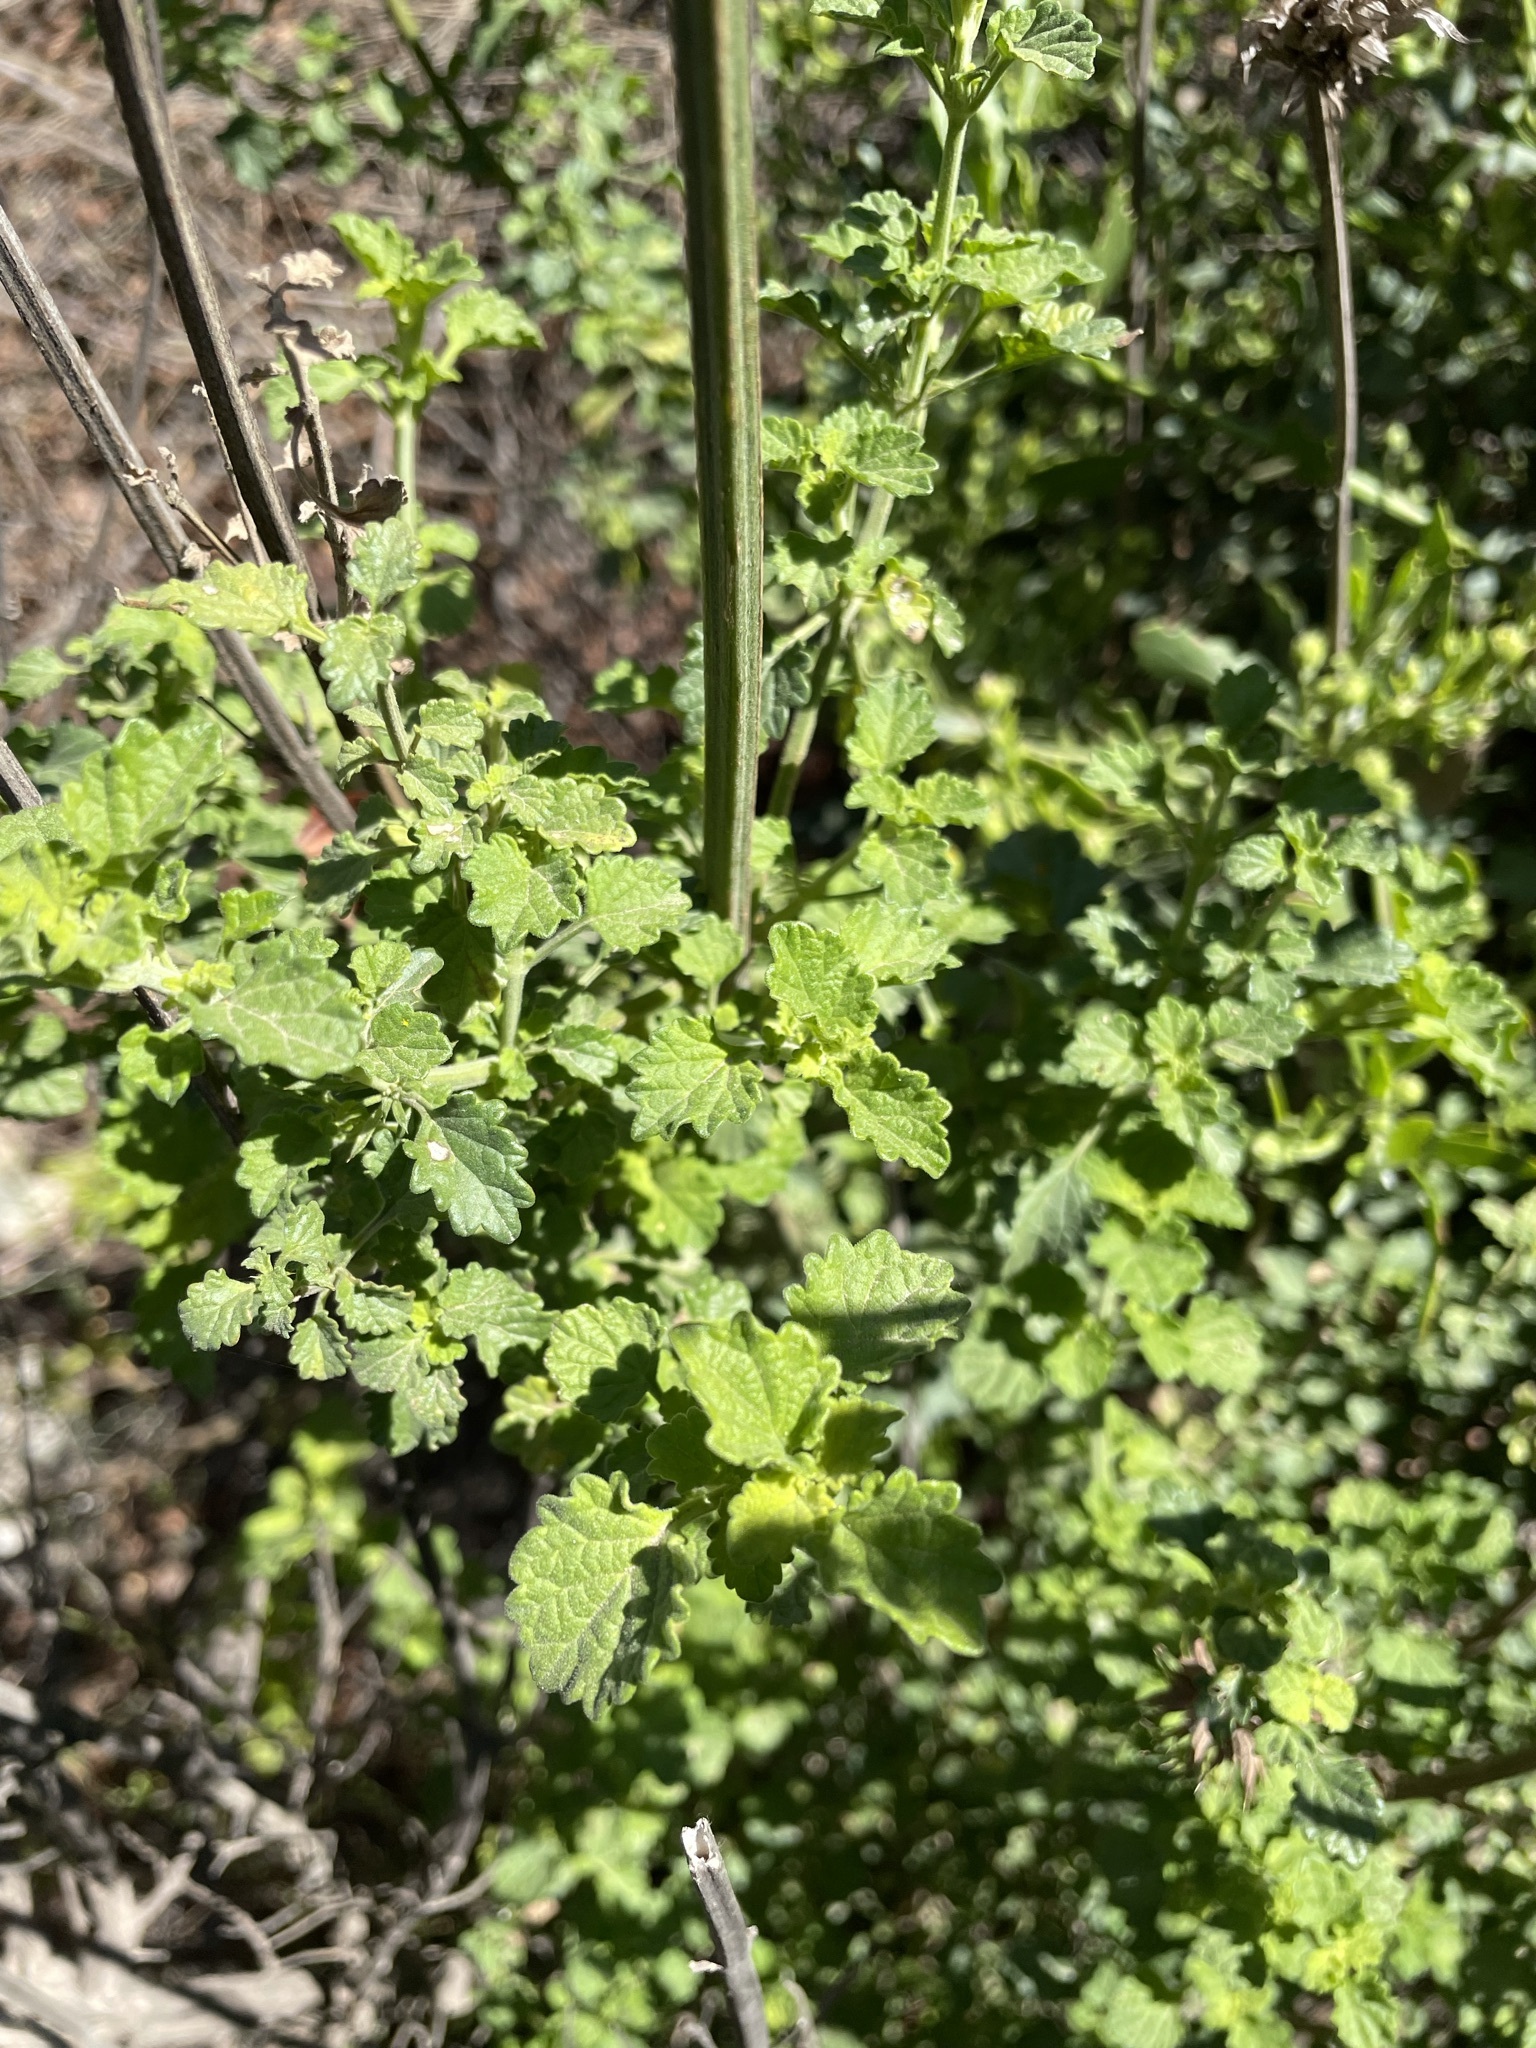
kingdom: Plantae
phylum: Tracheophyta
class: Magnoliopsida
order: Lamiales
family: Lamiaceae
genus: Leonotis
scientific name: Leonotis ocymifolia
